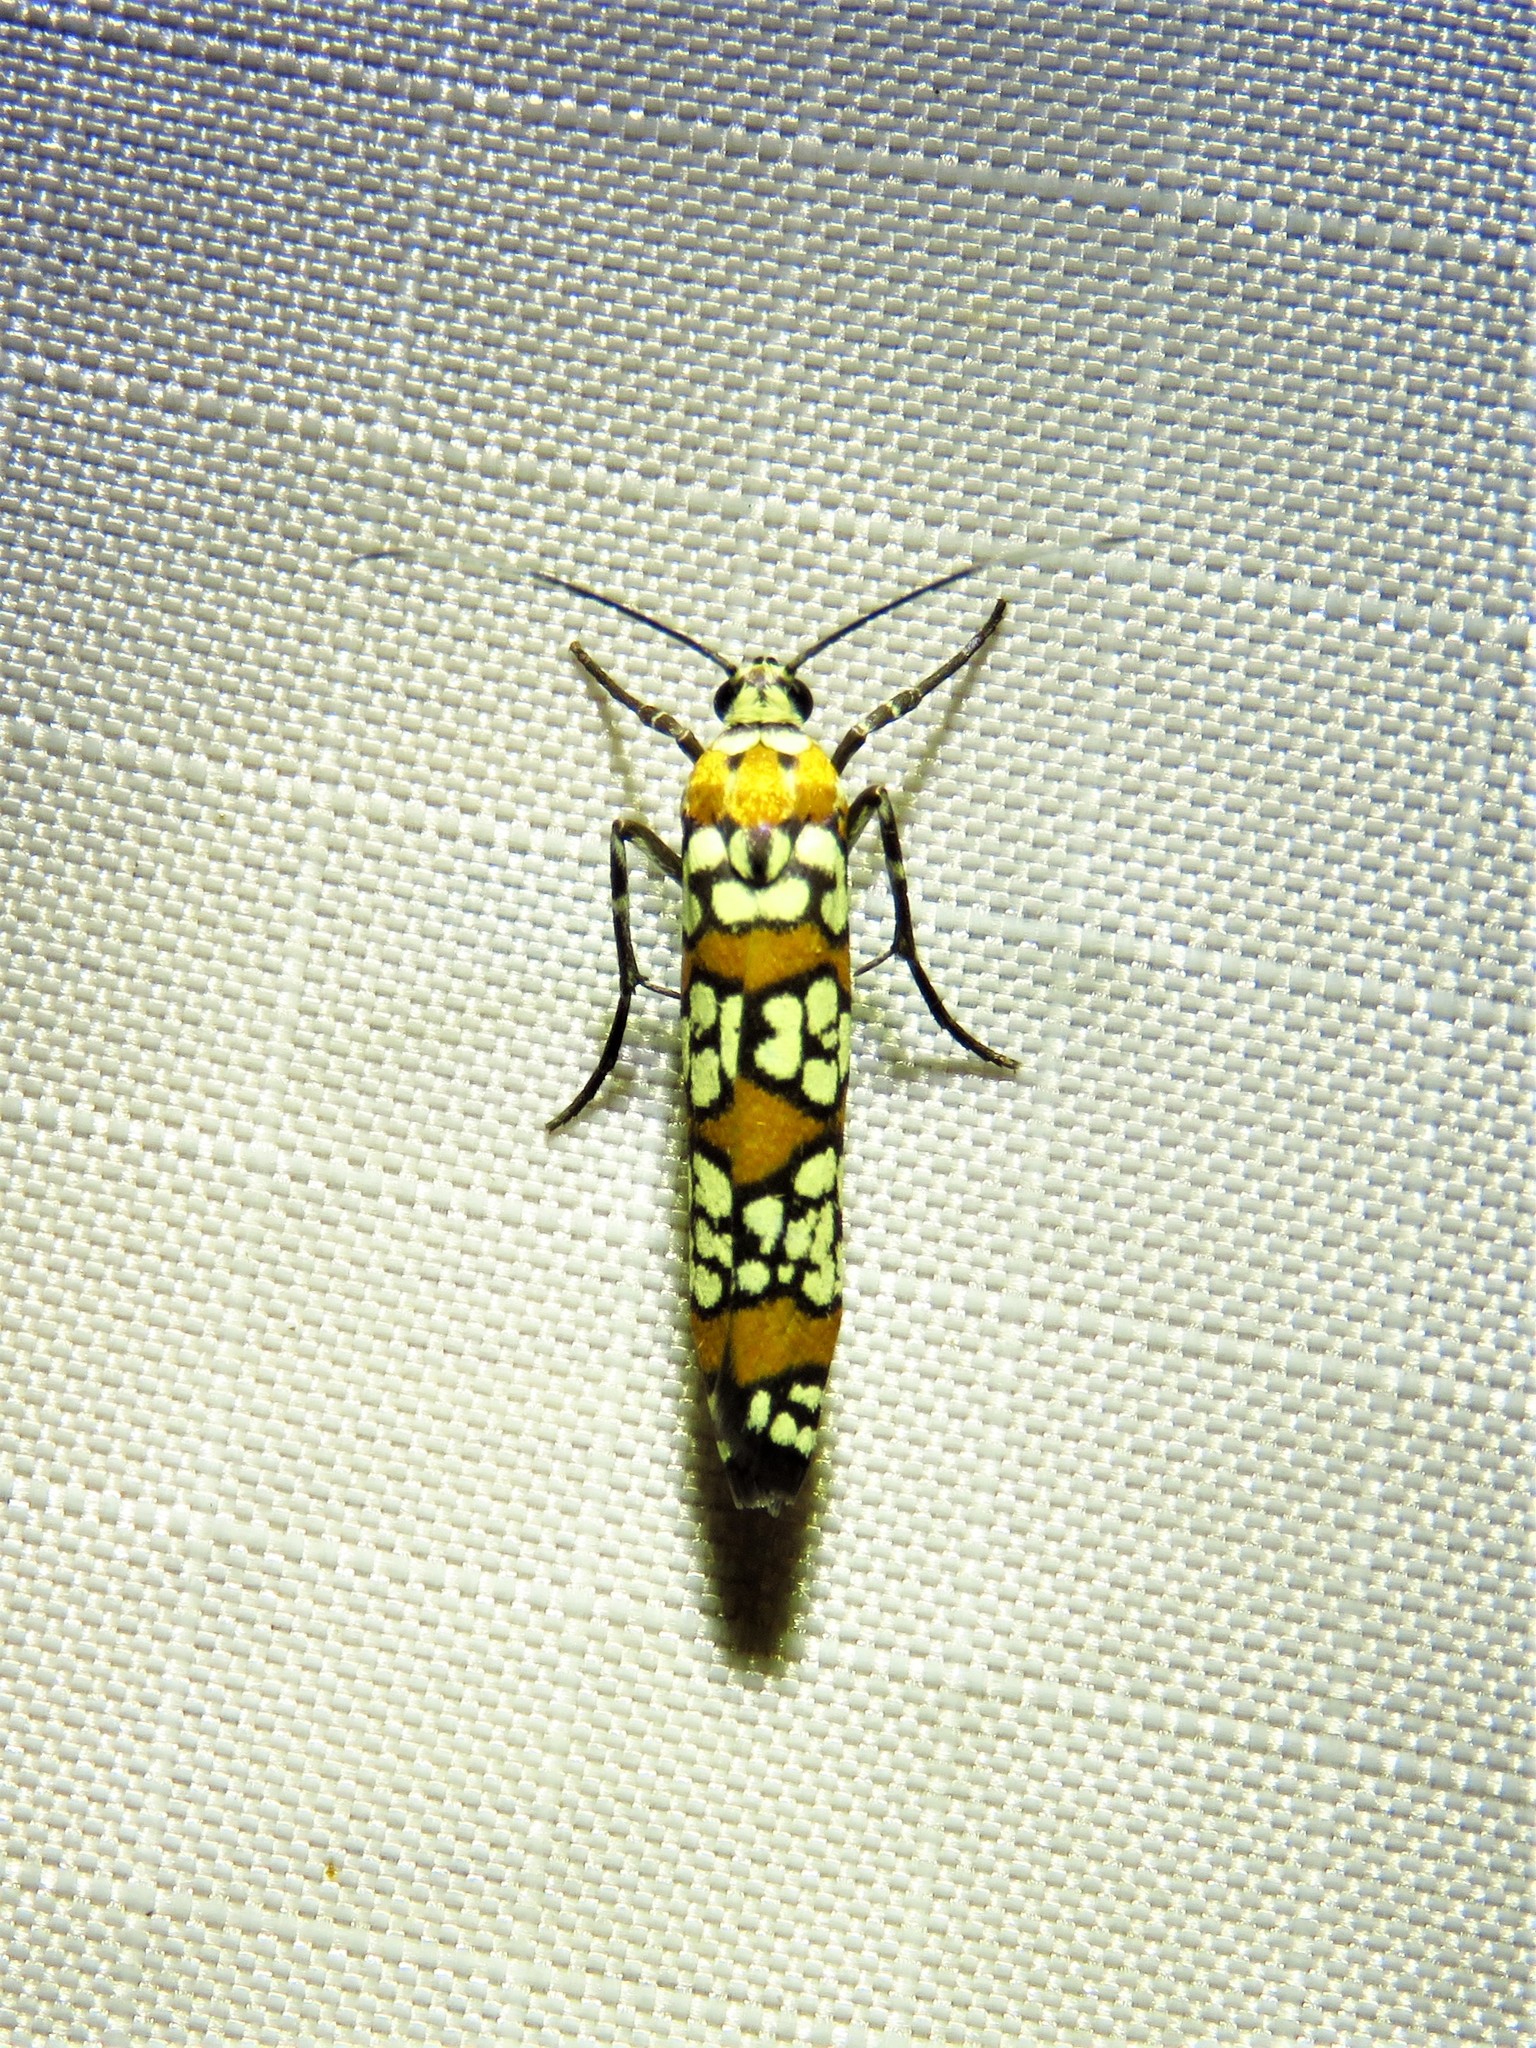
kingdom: Animalia
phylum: Arthropoda
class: Insecta
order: Lepidoptera
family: Attevidae
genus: Atteva
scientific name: Atteva punctella
